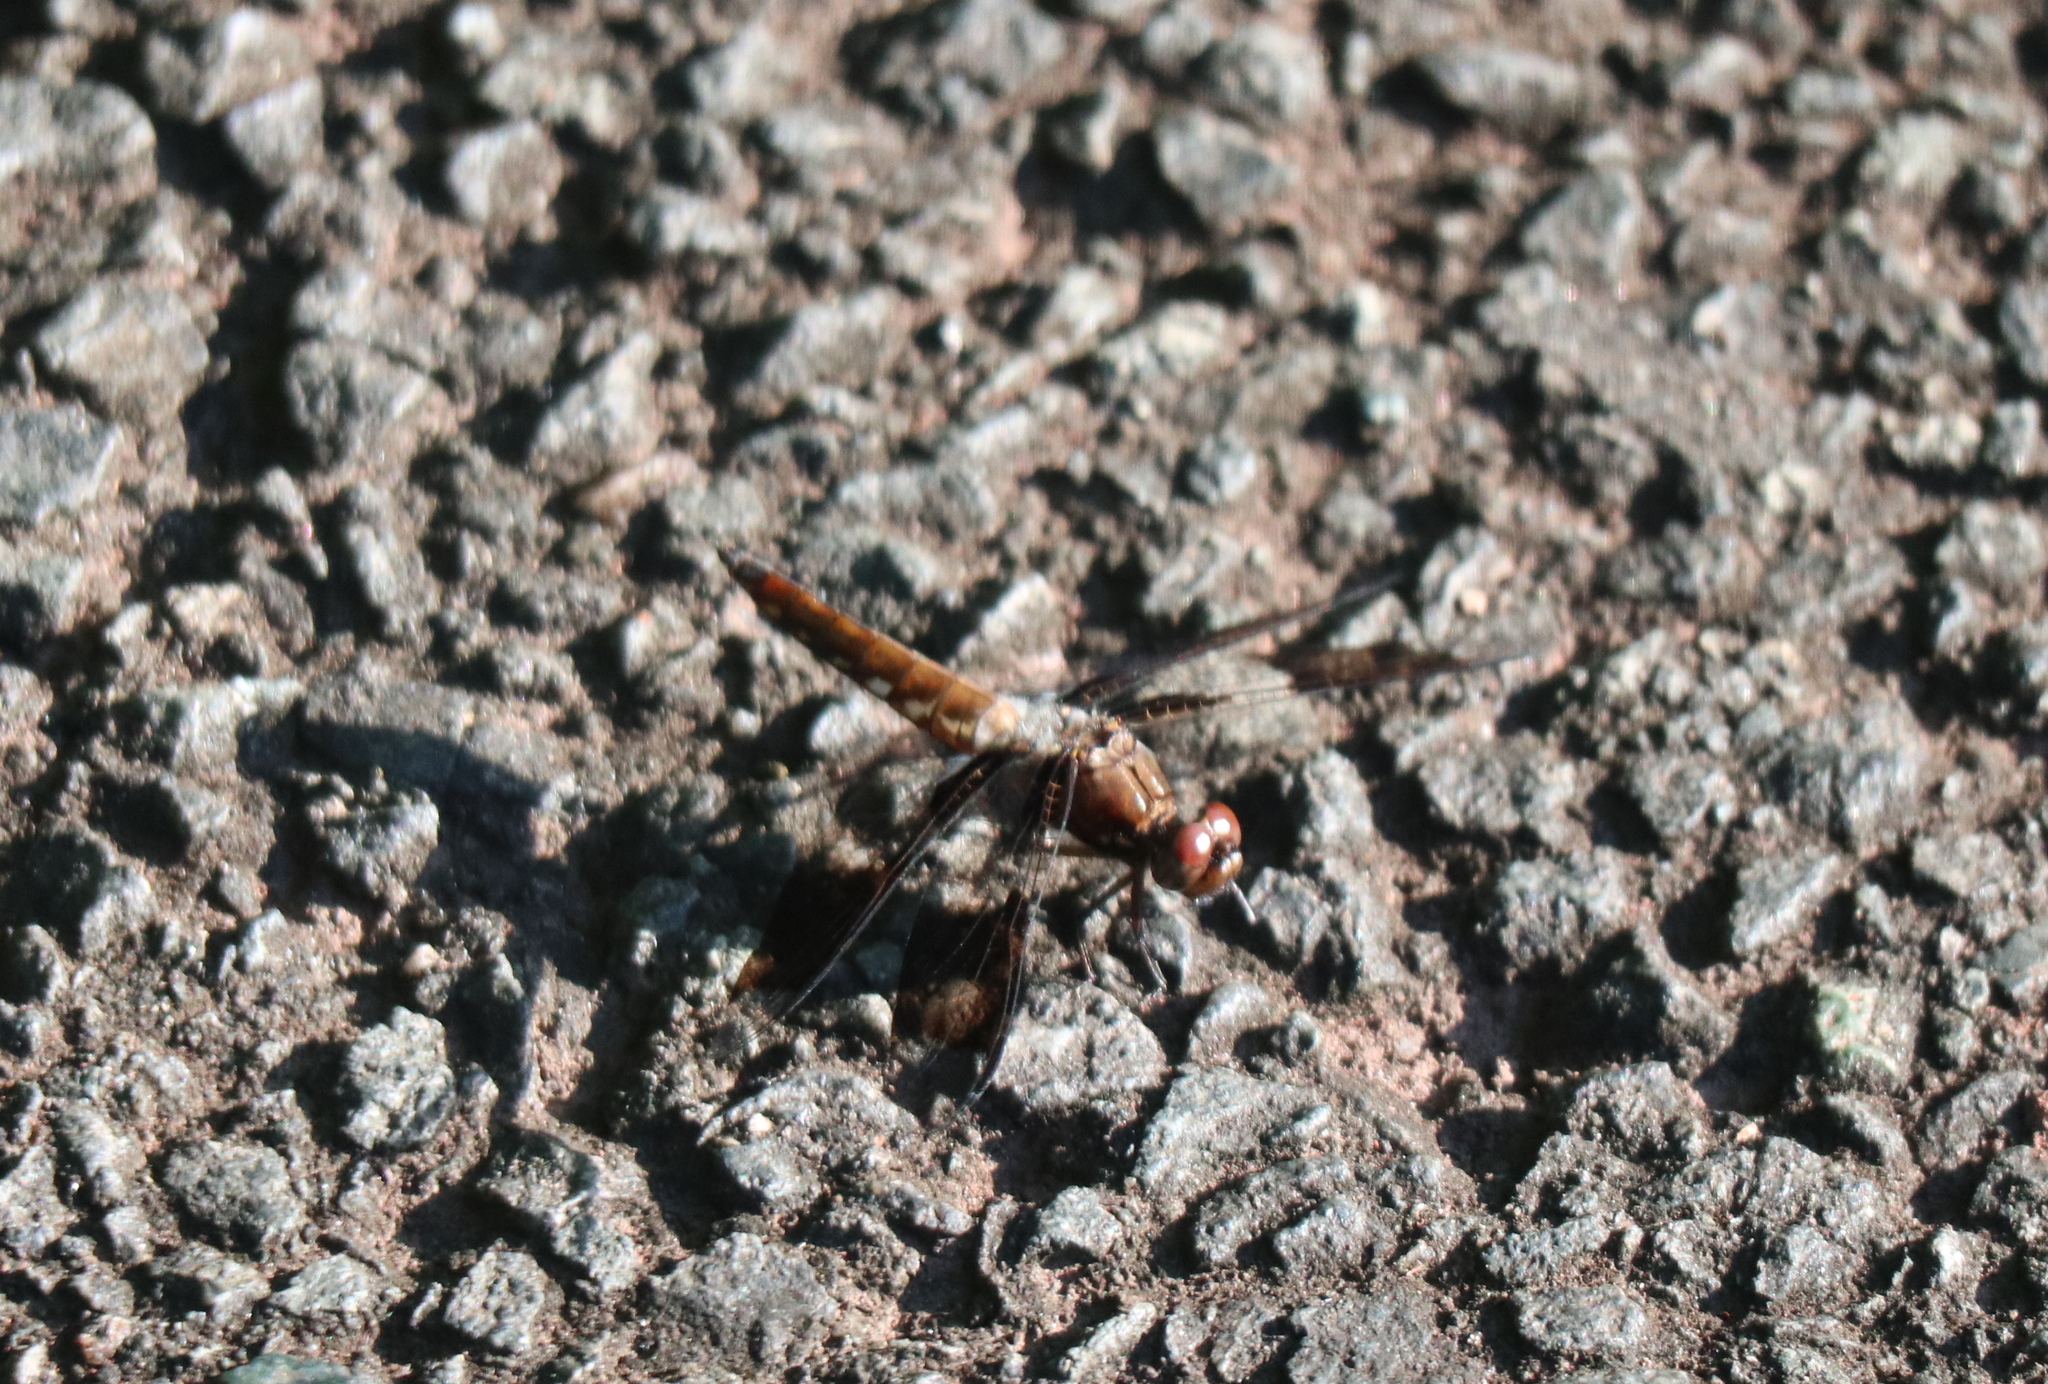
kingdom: Animalia
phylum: Arthropoda
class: Insecta
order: Odonata
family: Libellulidae
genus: Plathemis
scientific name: Plathemis lydia
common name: Common whitetail
